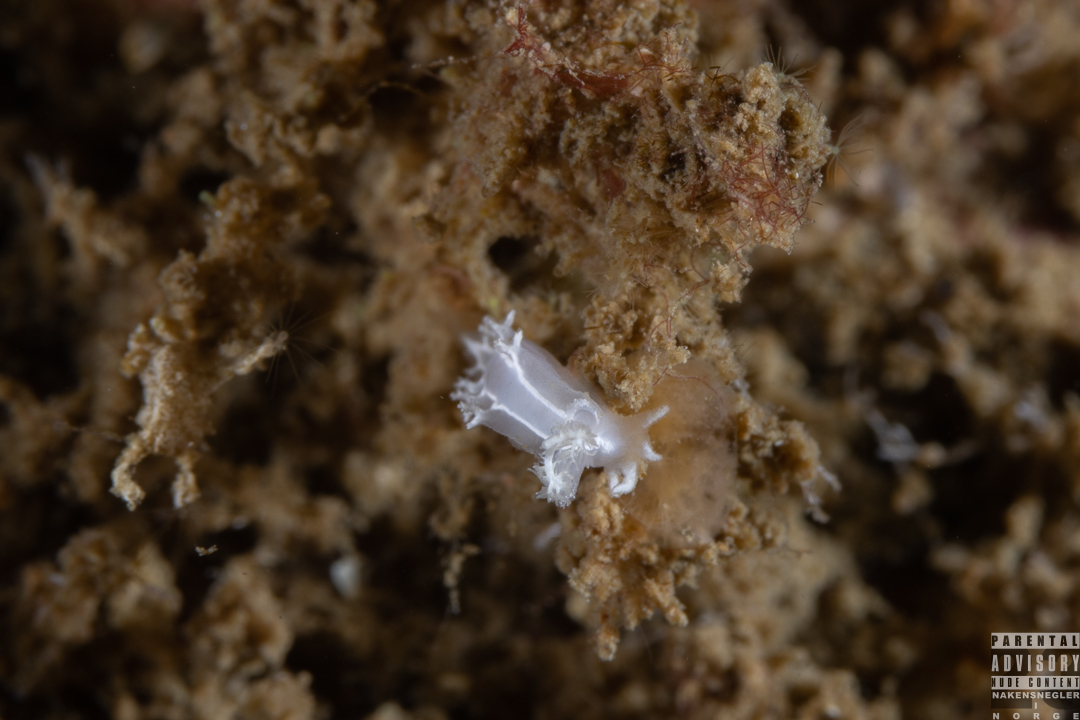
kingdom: Animalia
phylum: Mollusca
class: Gastropoda
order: Nudibranchia
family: Tritoniidae
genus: Duvaucelia
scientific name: Duvaucelia lineata
